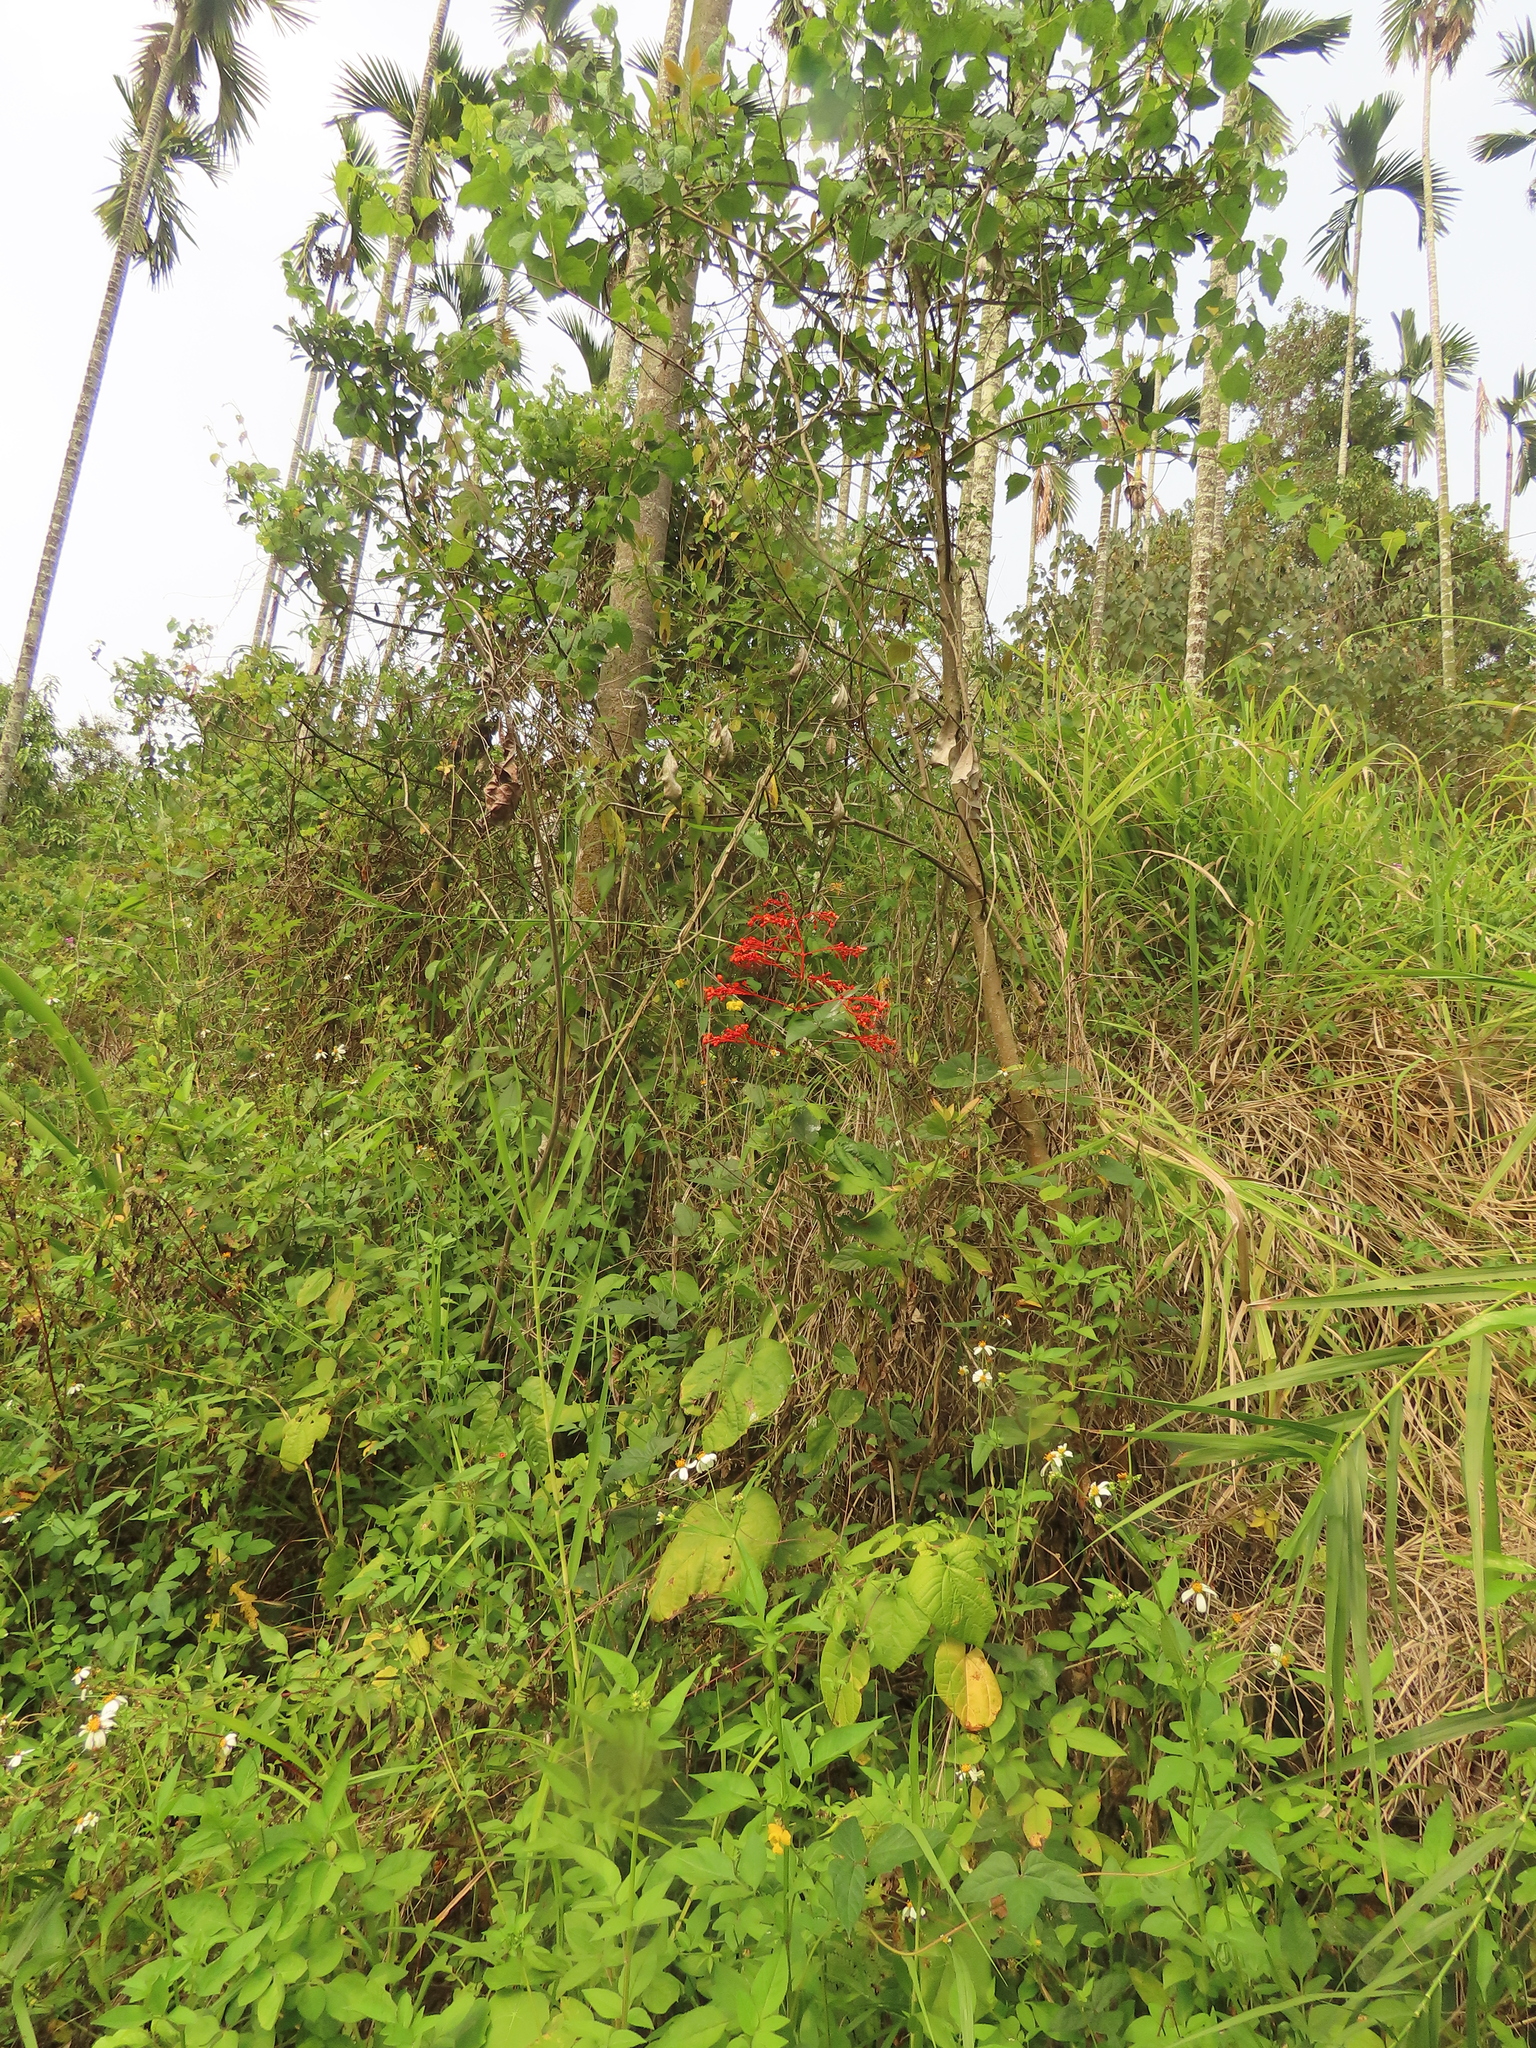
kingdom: Plantae
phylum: Tracheophyta
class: Magnoliopsida
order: Lamiales
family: Lamiaceae
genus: Clerodendrum
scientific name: Clerodendrum japonicum
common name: Japanese glorybower
